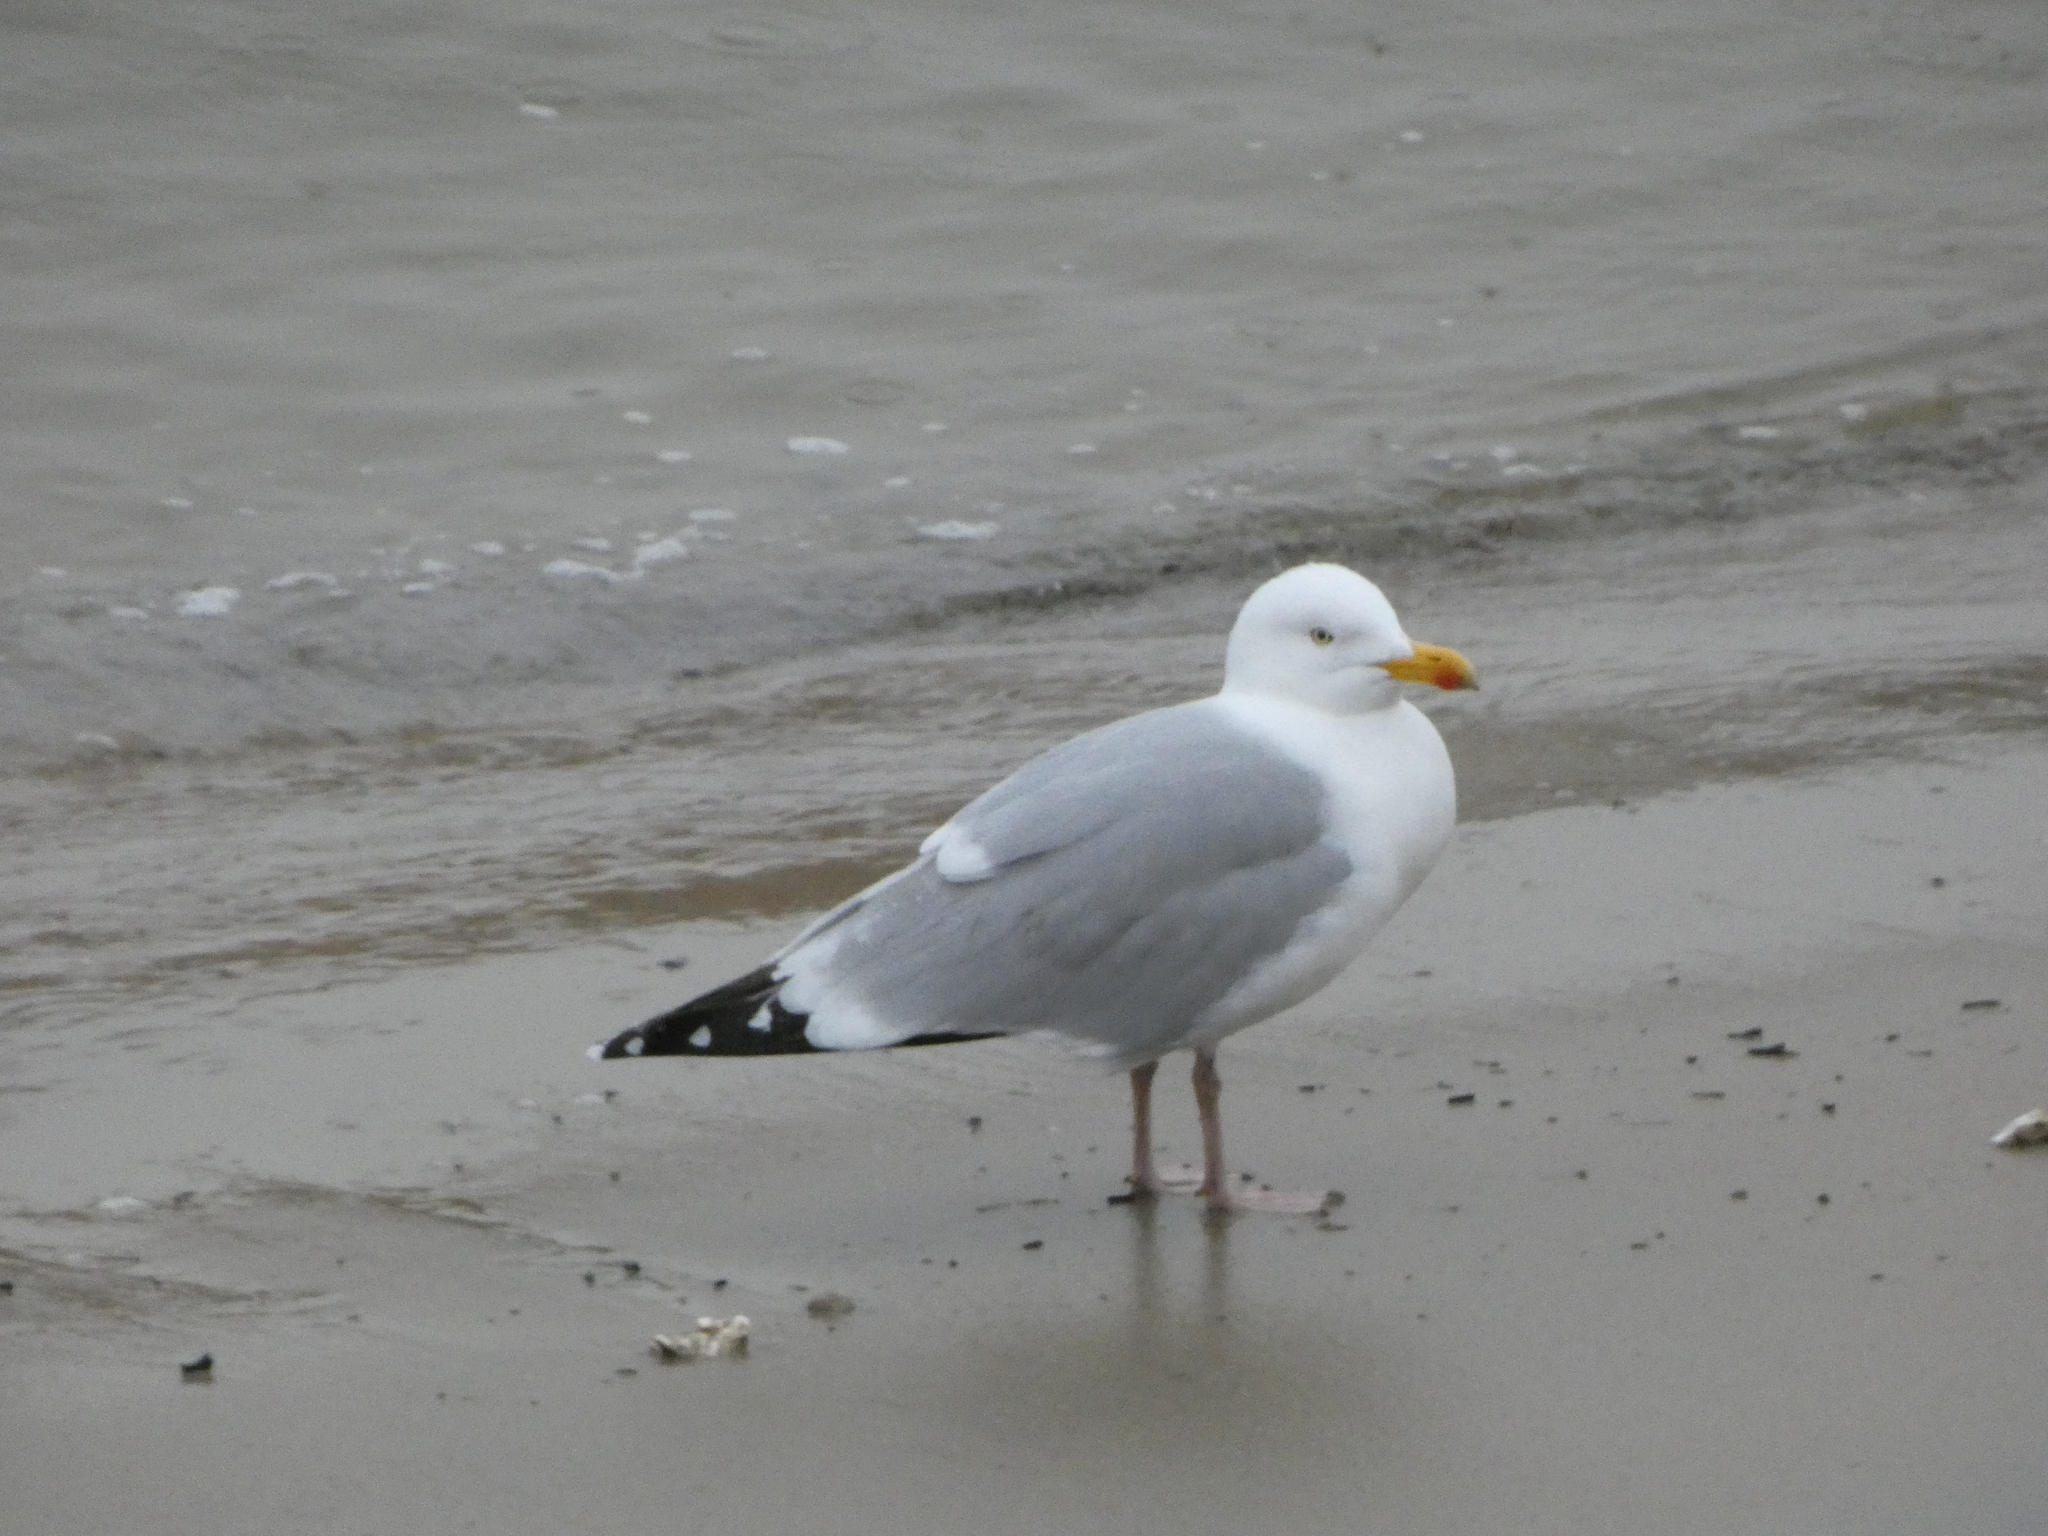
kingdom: Animalia
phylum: Chordata
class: Aves
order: Charadriiformes
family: Laridae
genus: Larus
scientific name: Larus argentatus
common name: Herring gull
